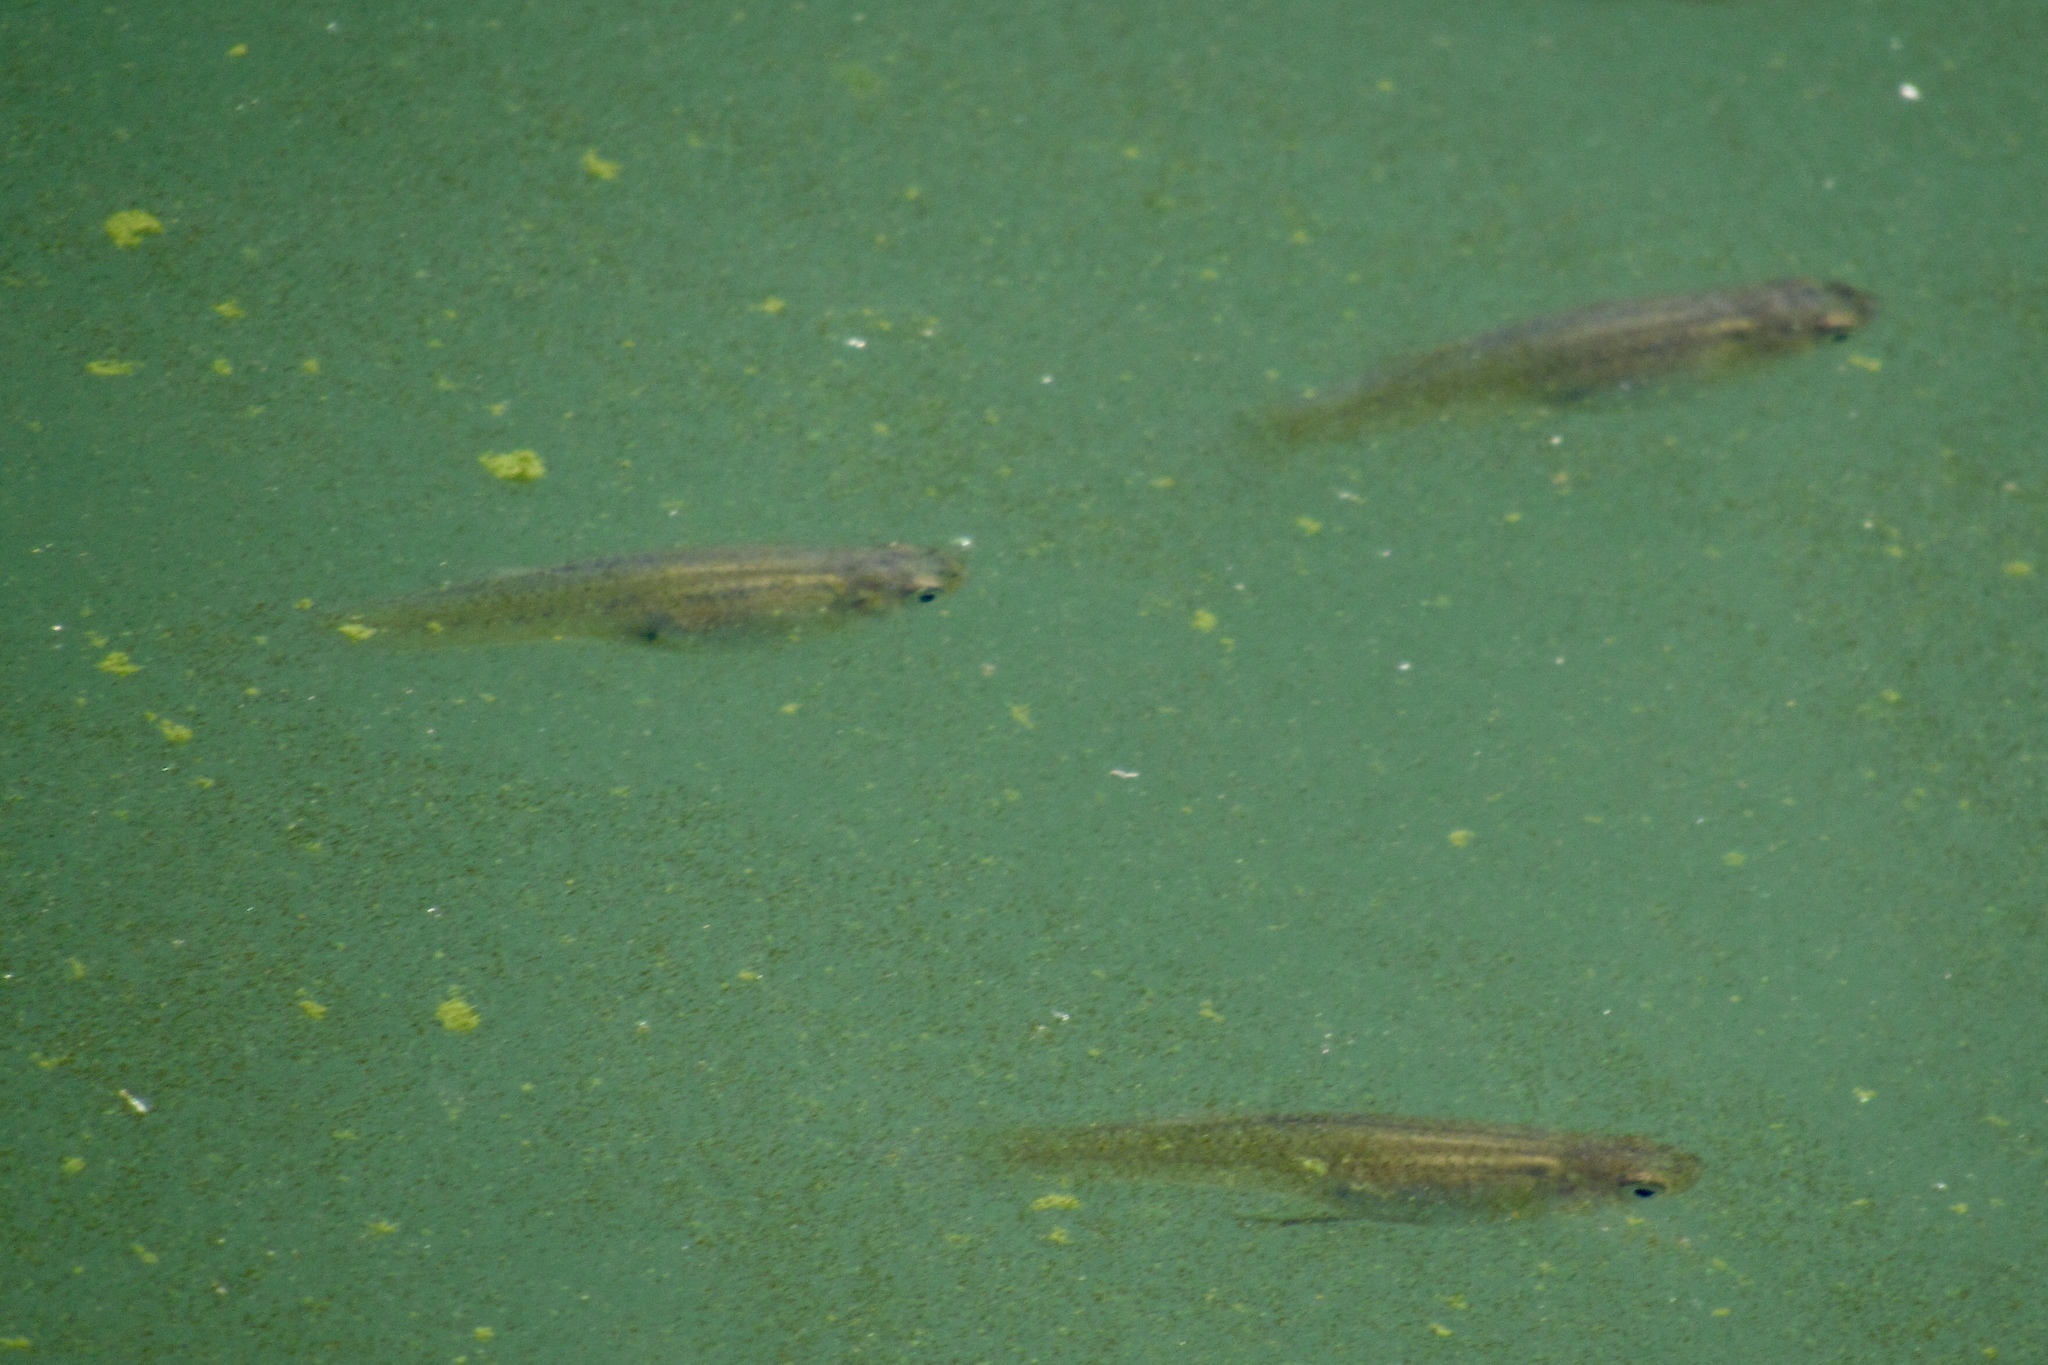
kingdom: Animalia
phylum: Chordata
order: Cyprinodontiformes
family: Poeciliidae
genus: Gambusia
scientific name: Gambusia affinis
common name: Mosquitofish
